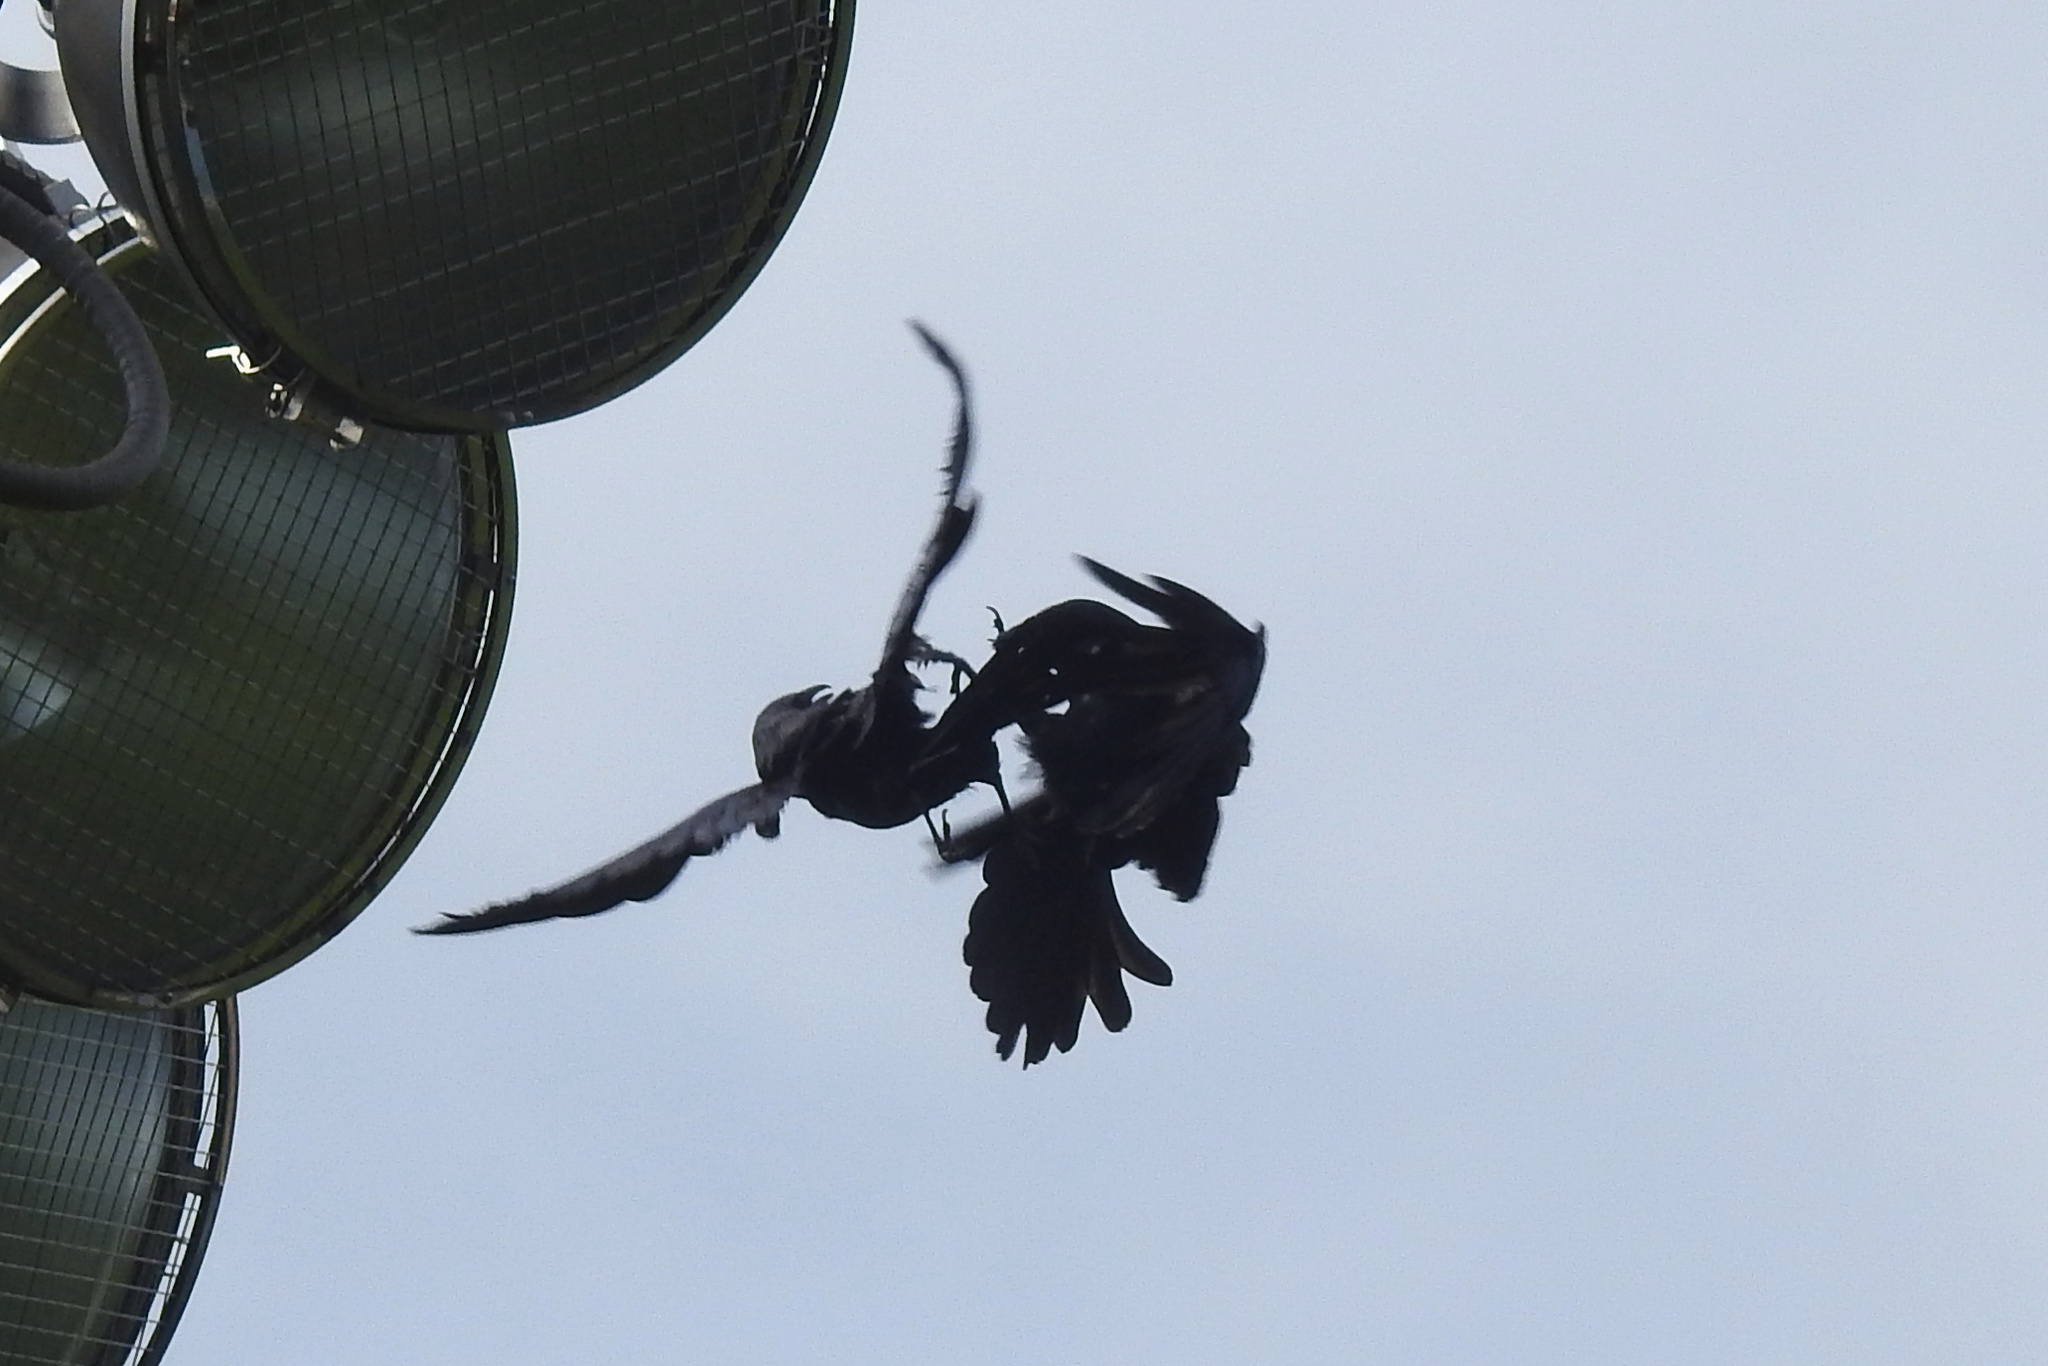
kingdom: Animalia
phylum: Chordata
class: Aves
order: Passeriformes
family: Corvidae
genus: Corvus
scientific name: Corvus ossifragus
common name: Fish crow
